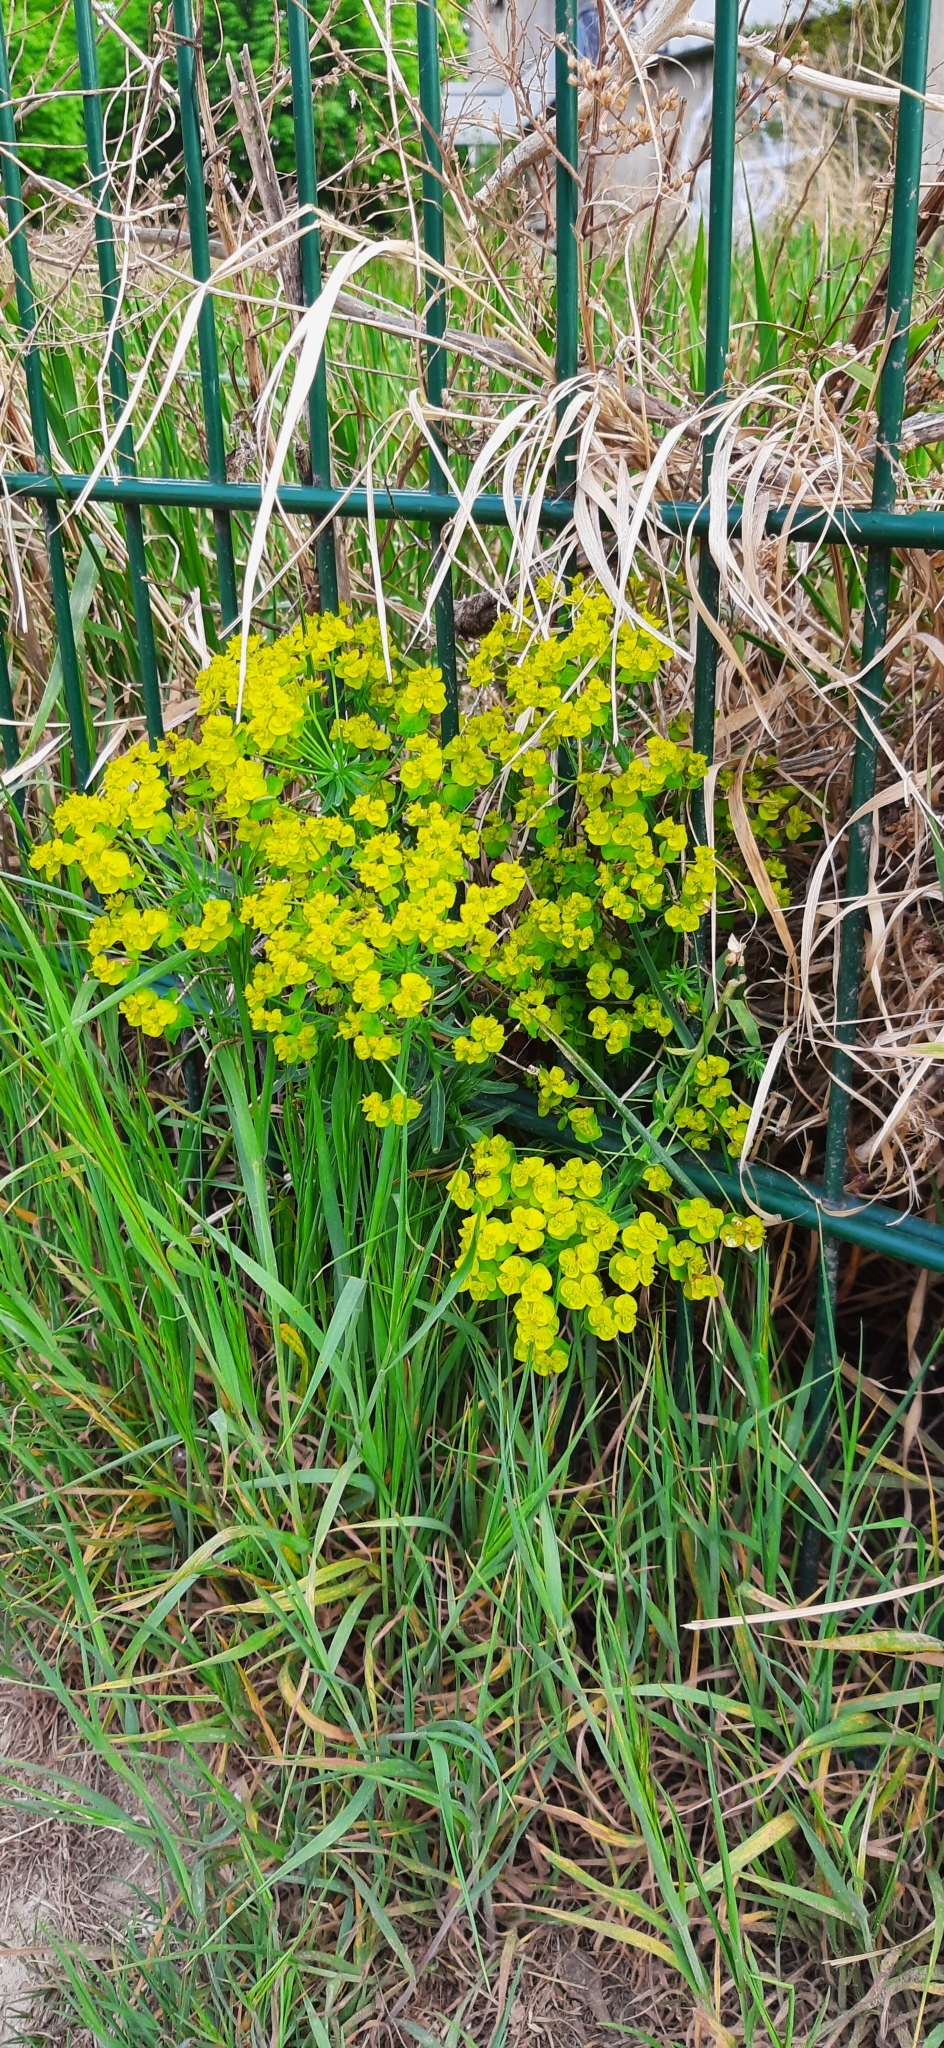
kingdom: Plantae
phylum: Tracheophyta
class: Magnoliopsida
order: Malpighiales
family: Euphorbiaceae
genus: Euphorbia
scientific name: Euphorbia cyparissias
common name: Cypress spurge
